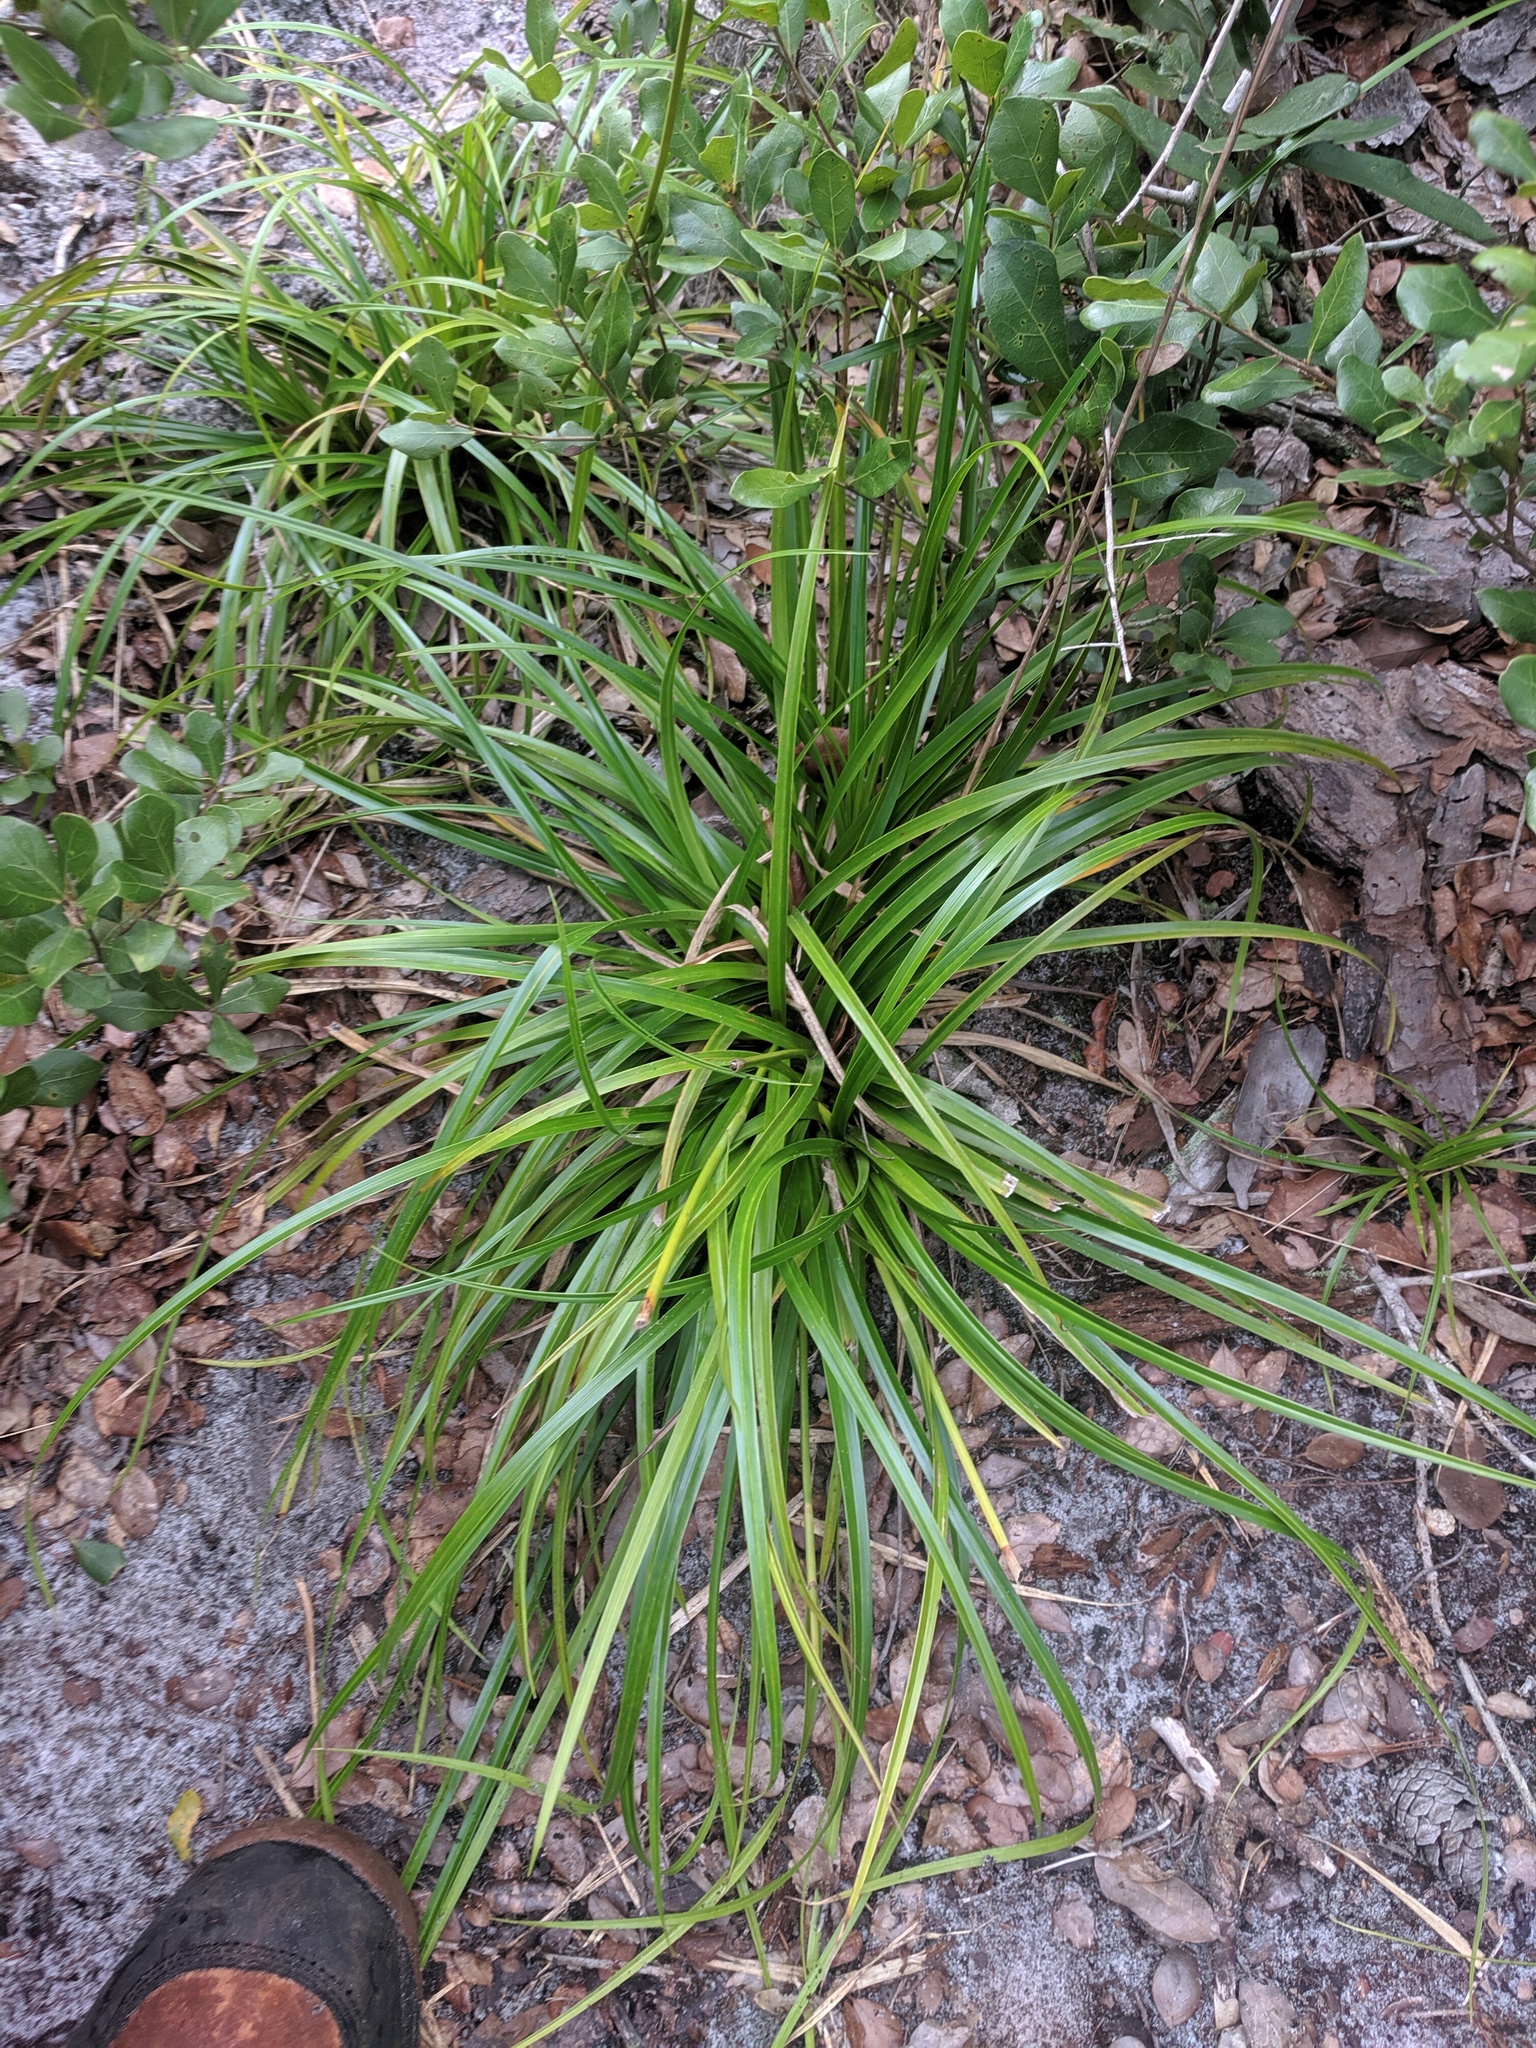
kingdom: Plantae
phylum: Tracheophyta
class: Liliopsida
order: Poales
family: Cyperaceae
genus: Rhynchospora
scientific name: Rhynchospora megalocarpa
